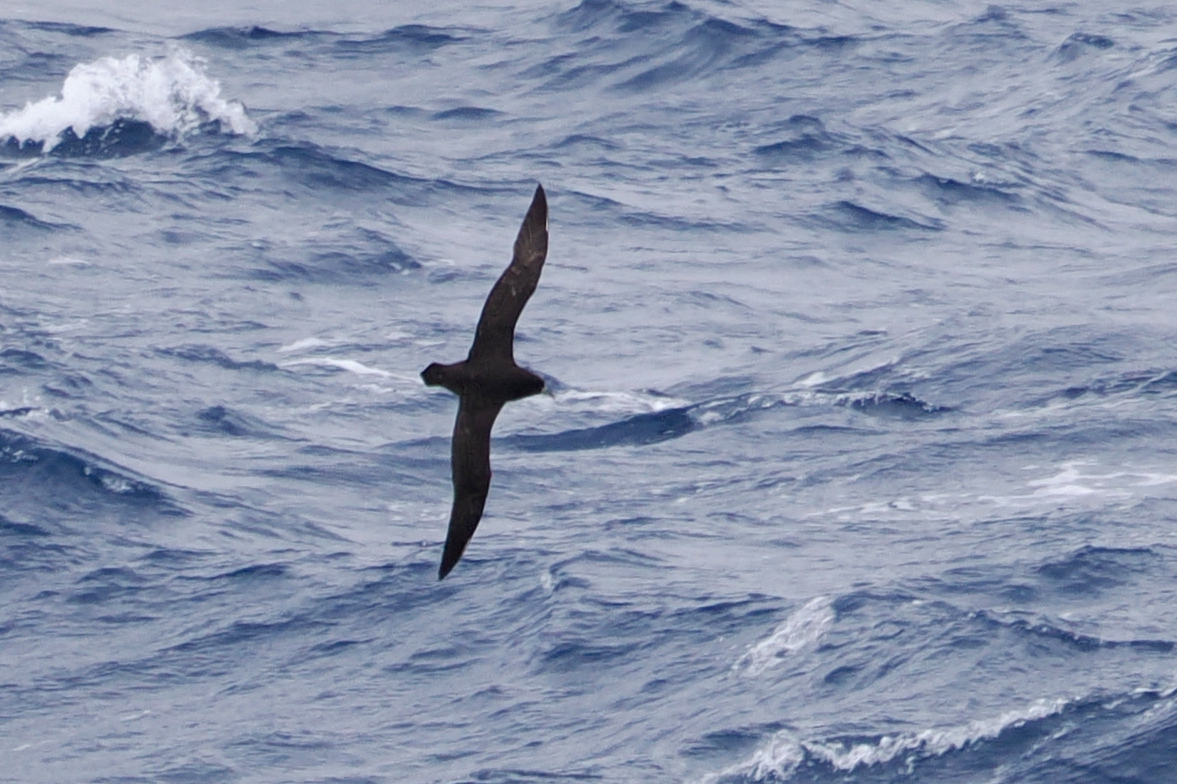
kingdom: Animalia
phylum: Chordata
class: Aves
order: Procellariiformes
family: Procellariidae
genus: Procellaria
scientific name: Procellaria aequinoctialis
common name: White-chinned petrel
